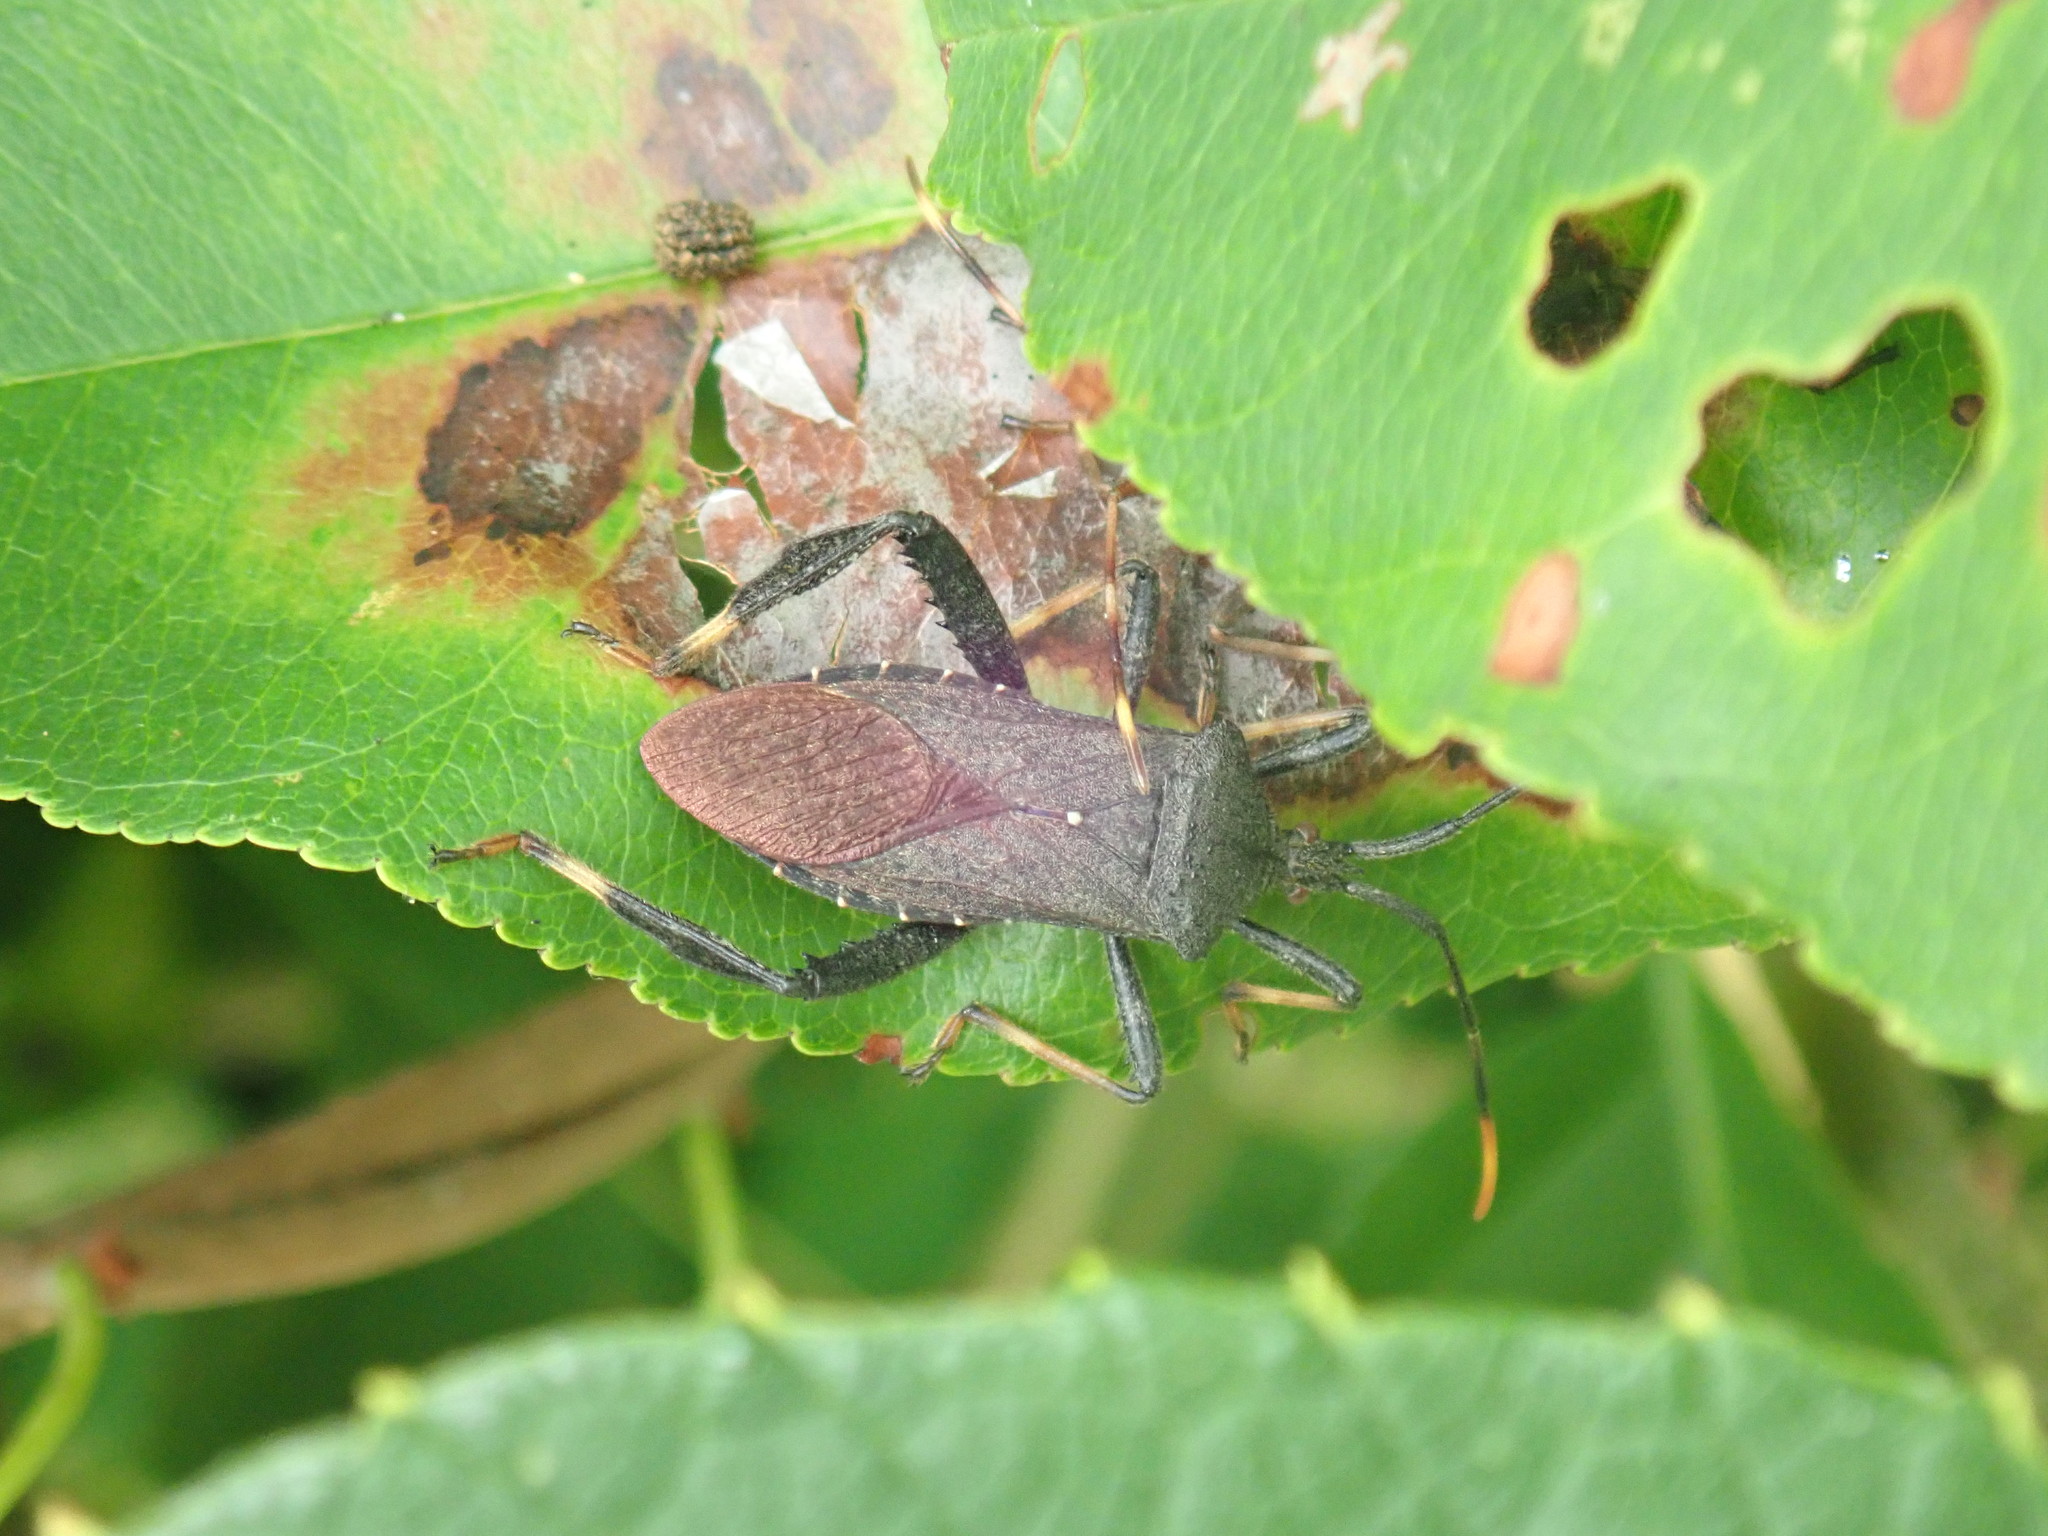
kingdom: Animalia
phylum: Arthropoda
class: Insecta
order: Hemiptera
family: Coreidae
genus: Acanthocephala
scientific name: Acanthocephala terminalis
